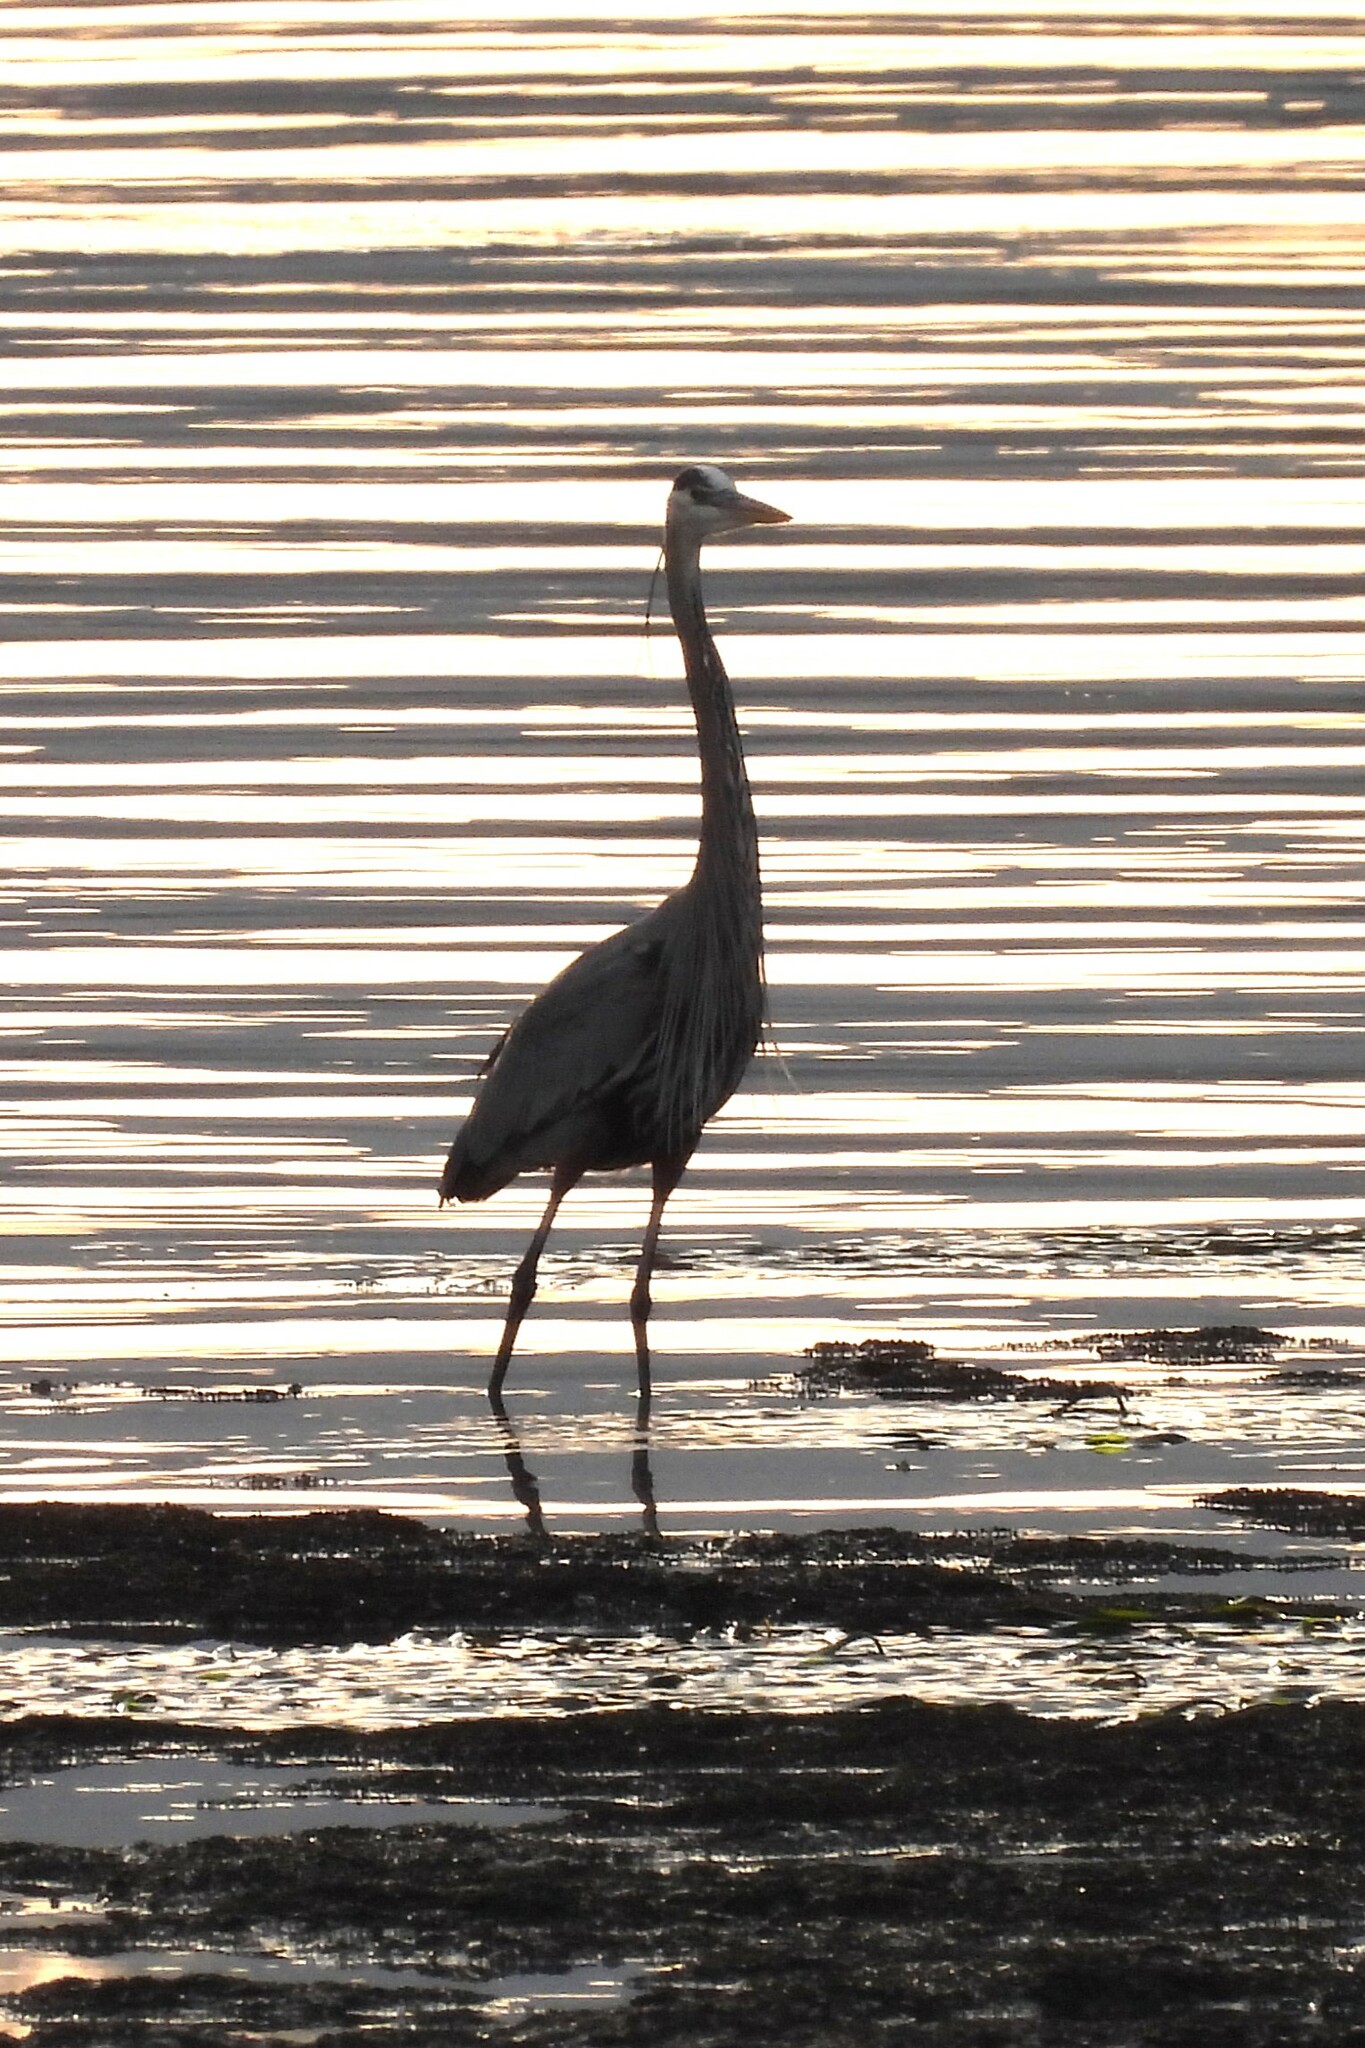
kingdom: Animalia
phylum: Chordata
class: Aves
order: Pelecaniformes
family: Ardeidae
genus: Ardea
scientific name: Ardea herodias
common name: Great blue heron
